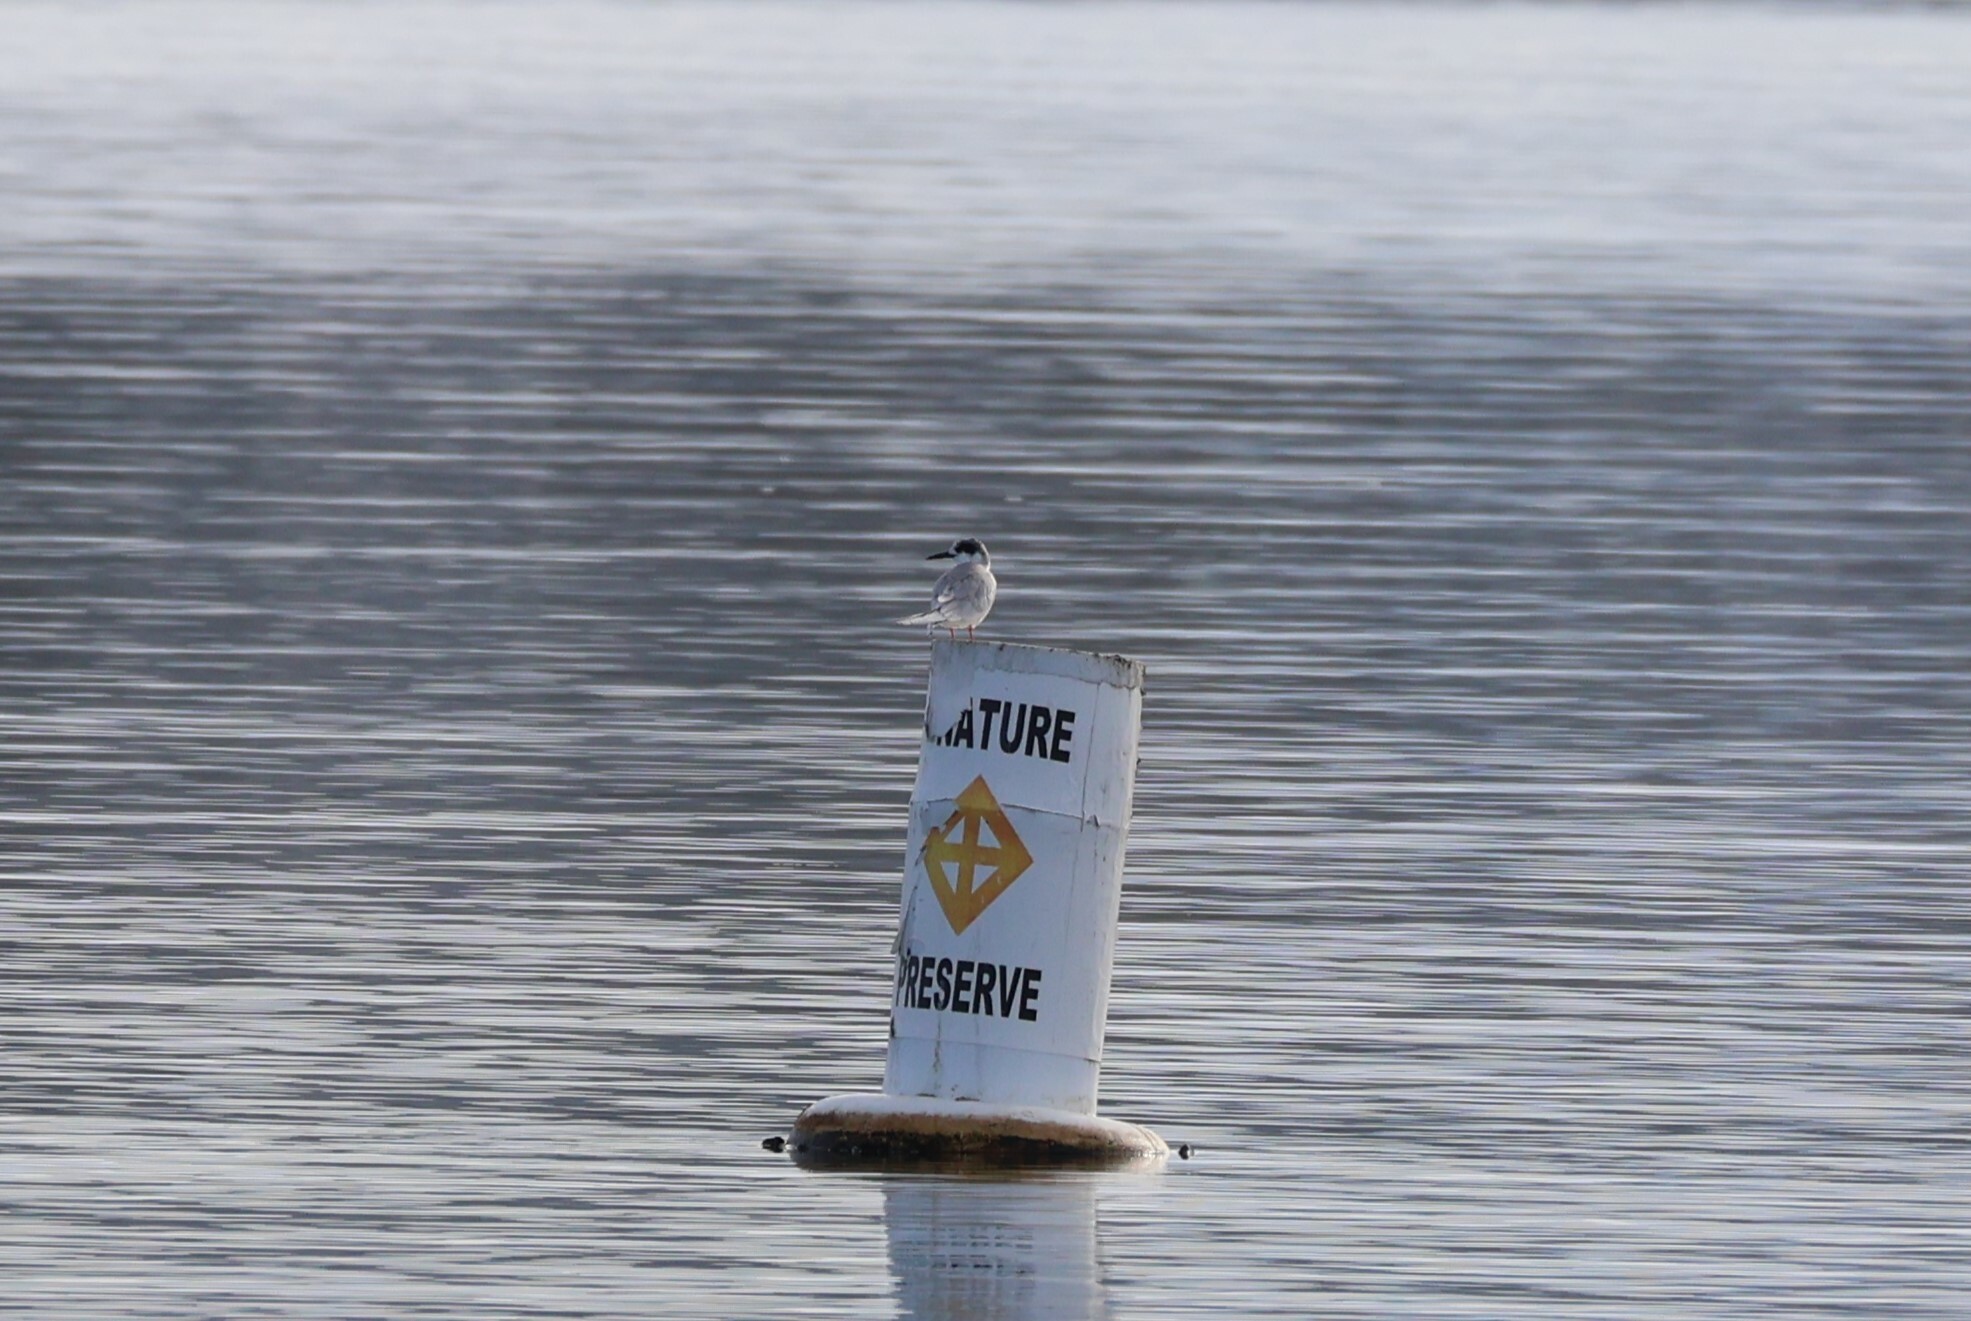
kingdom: Animalia
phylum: Chordata
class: Aves
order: Charadriiformes
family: Laridae
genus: Sterna
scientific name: Sterna forsteri
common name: Forster's tern
